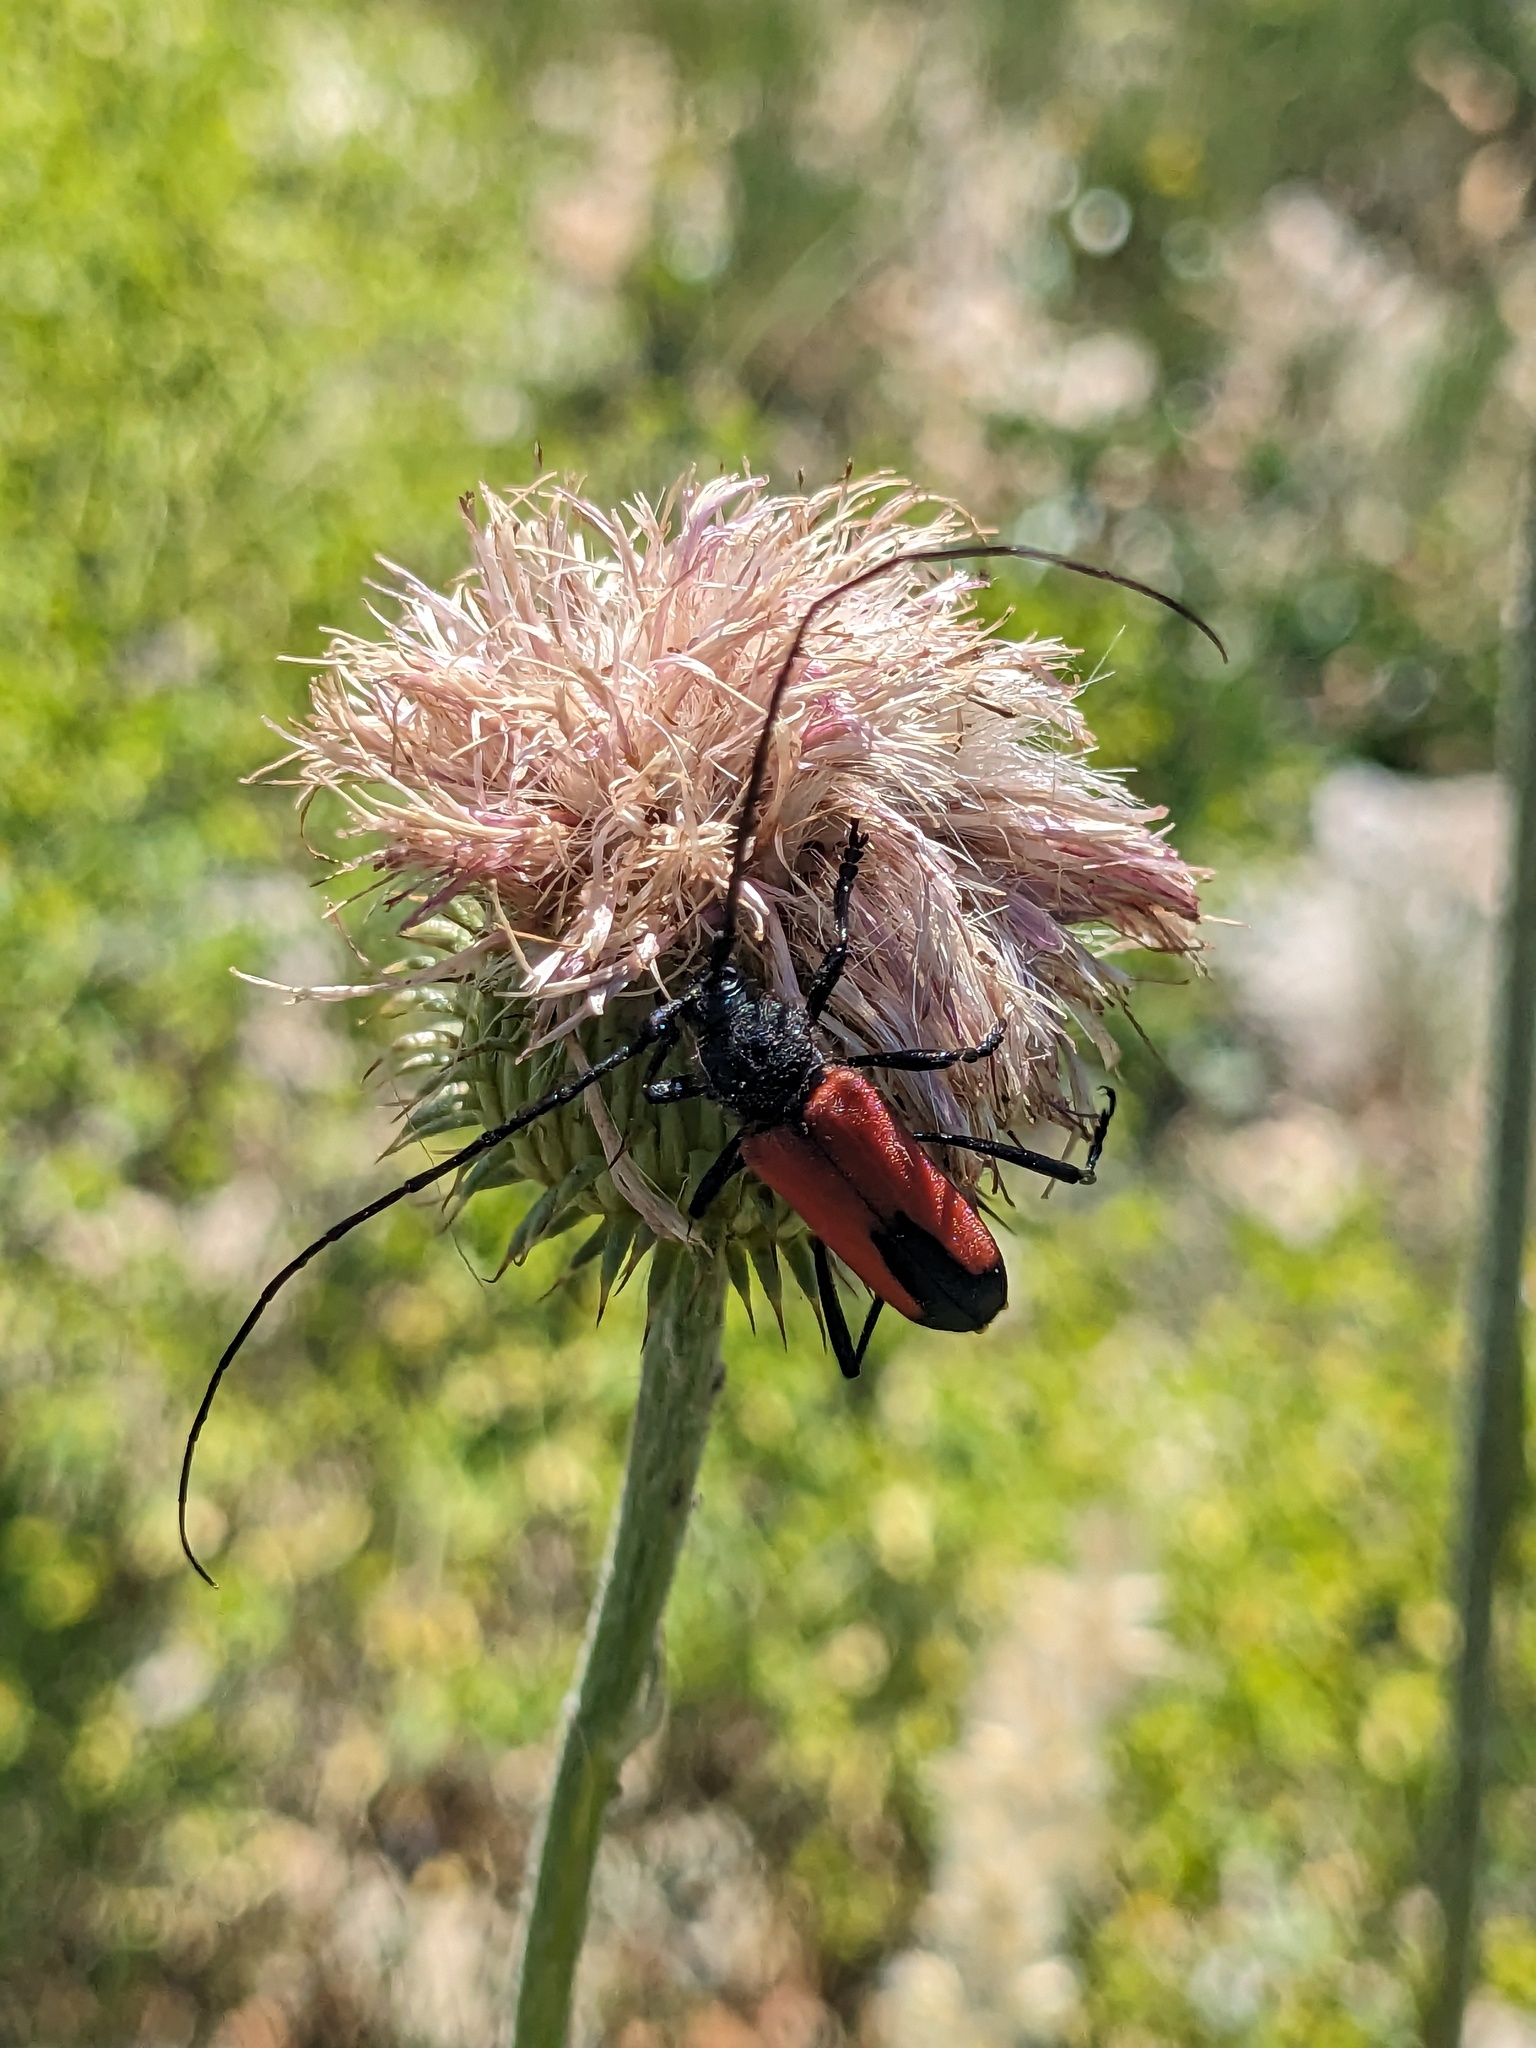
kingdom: Animalia
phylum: Arthropoda
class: Insecta
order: Coleoptera
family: Cerambycidae
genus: Purpuricenus
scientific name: Purpuricenus budensis
